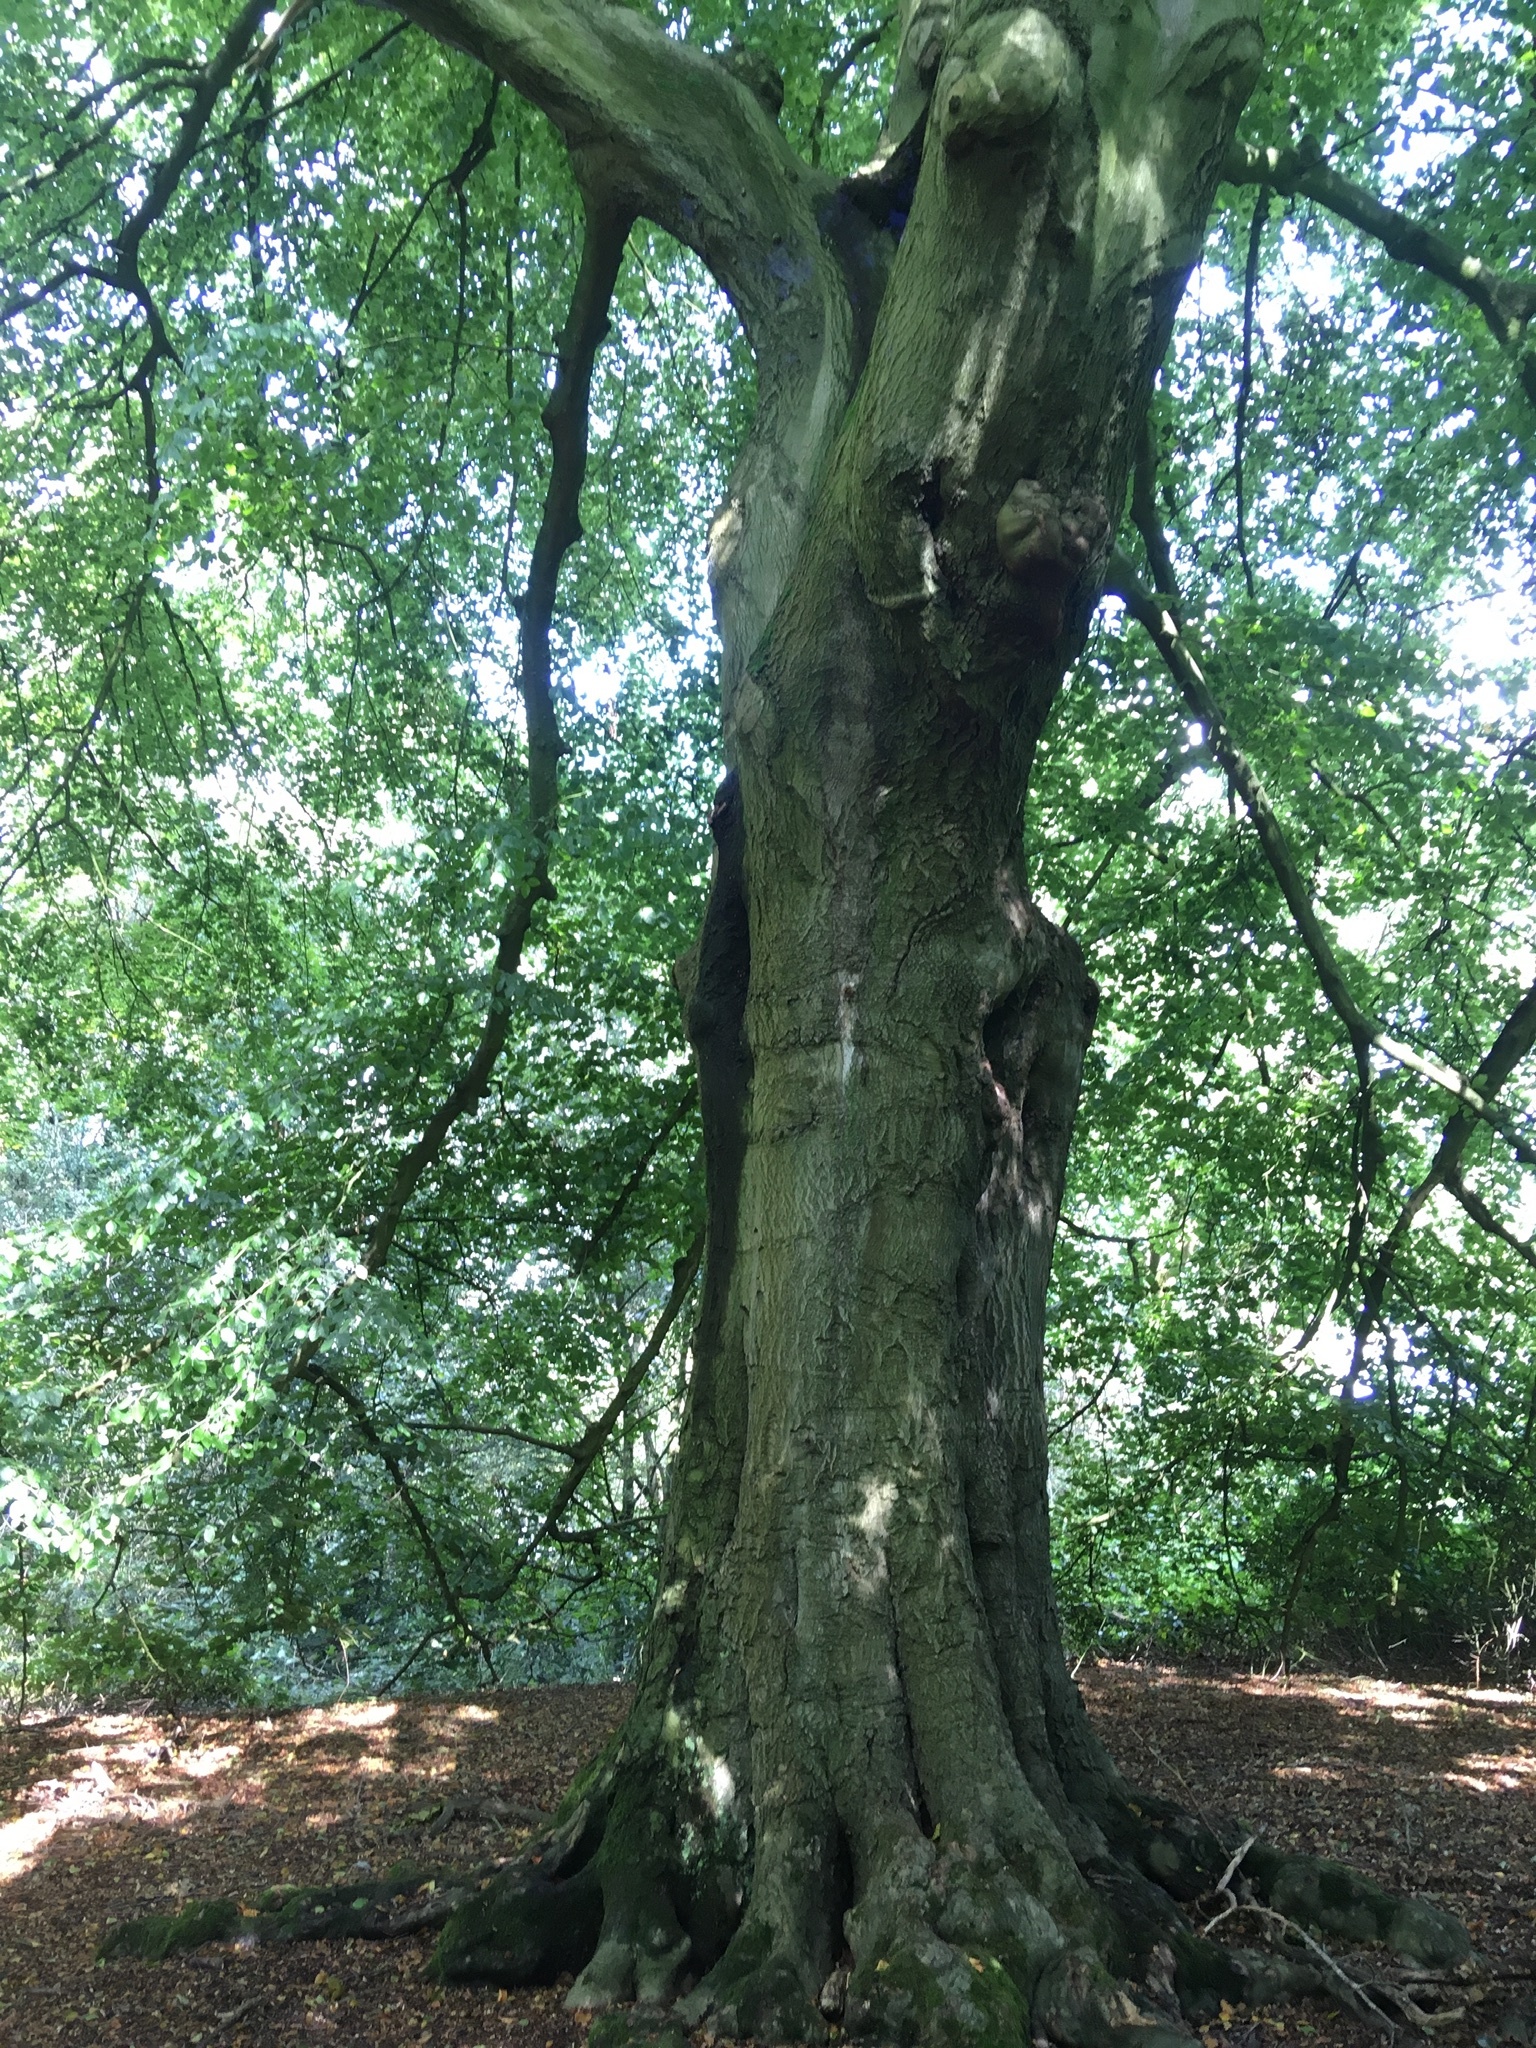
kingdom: Plantae
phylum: Tracheophyta
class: Magnoliopsida
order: Fagales
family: Fagaceae
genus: Fagus
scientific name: Fagus sylvatica
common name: Beech
